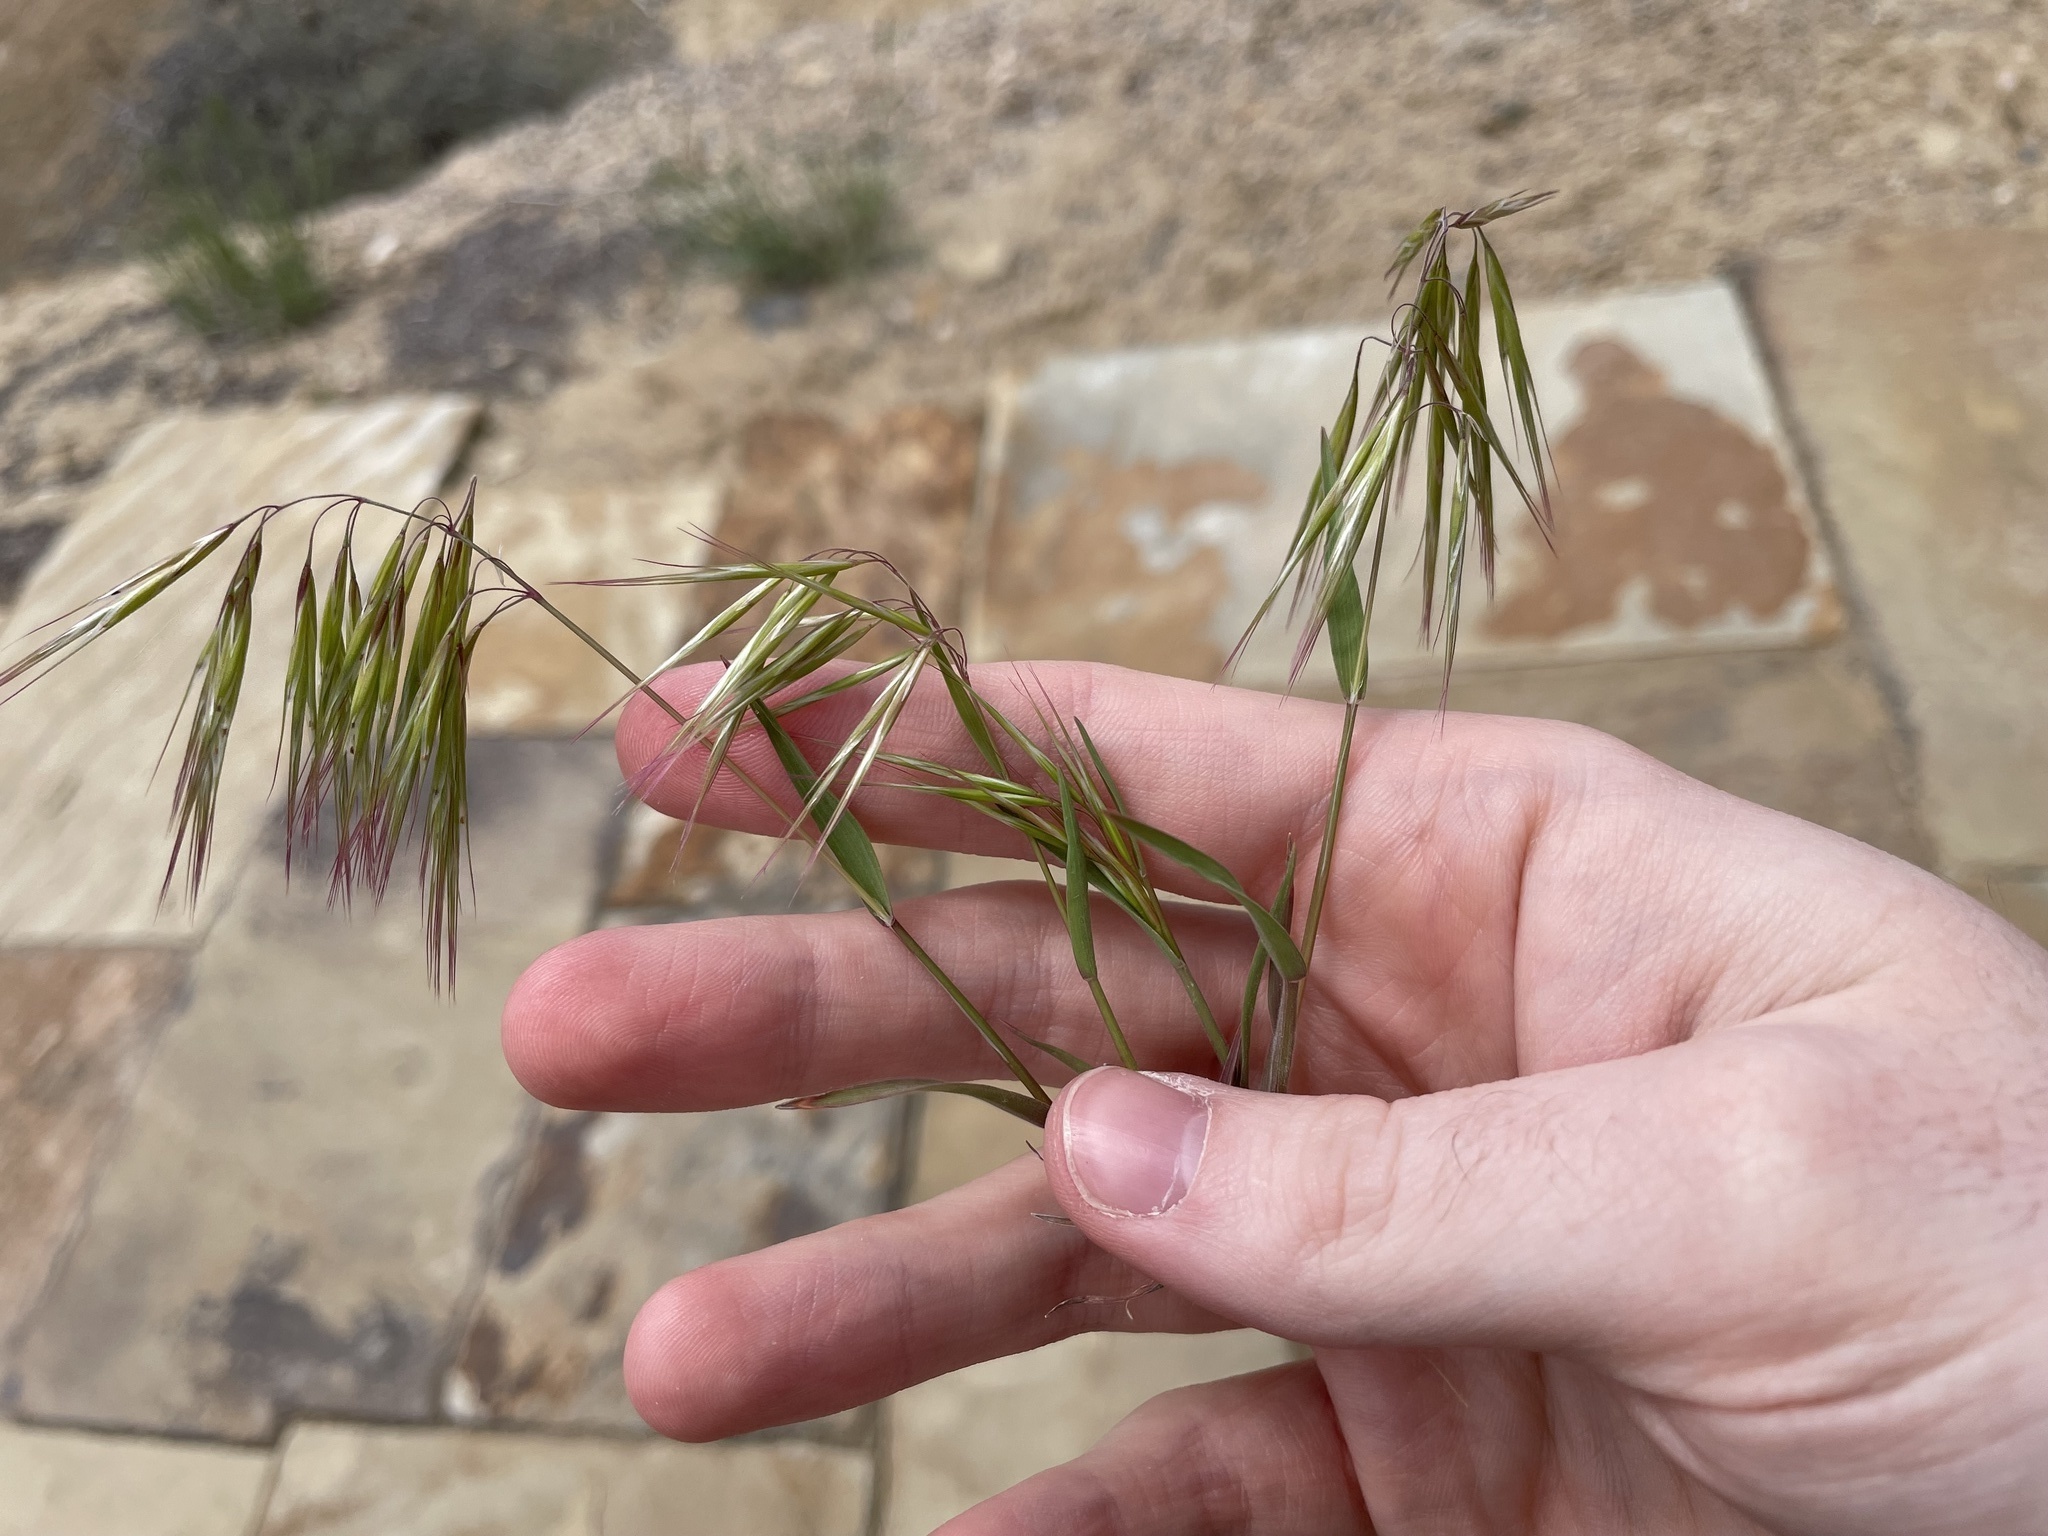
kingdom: Plantae
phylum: Tracheophyta
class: Liliopsida
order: Poales
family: Poaceae
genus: Bromus
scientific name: Bromus tectorum
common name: Cheatgrass
